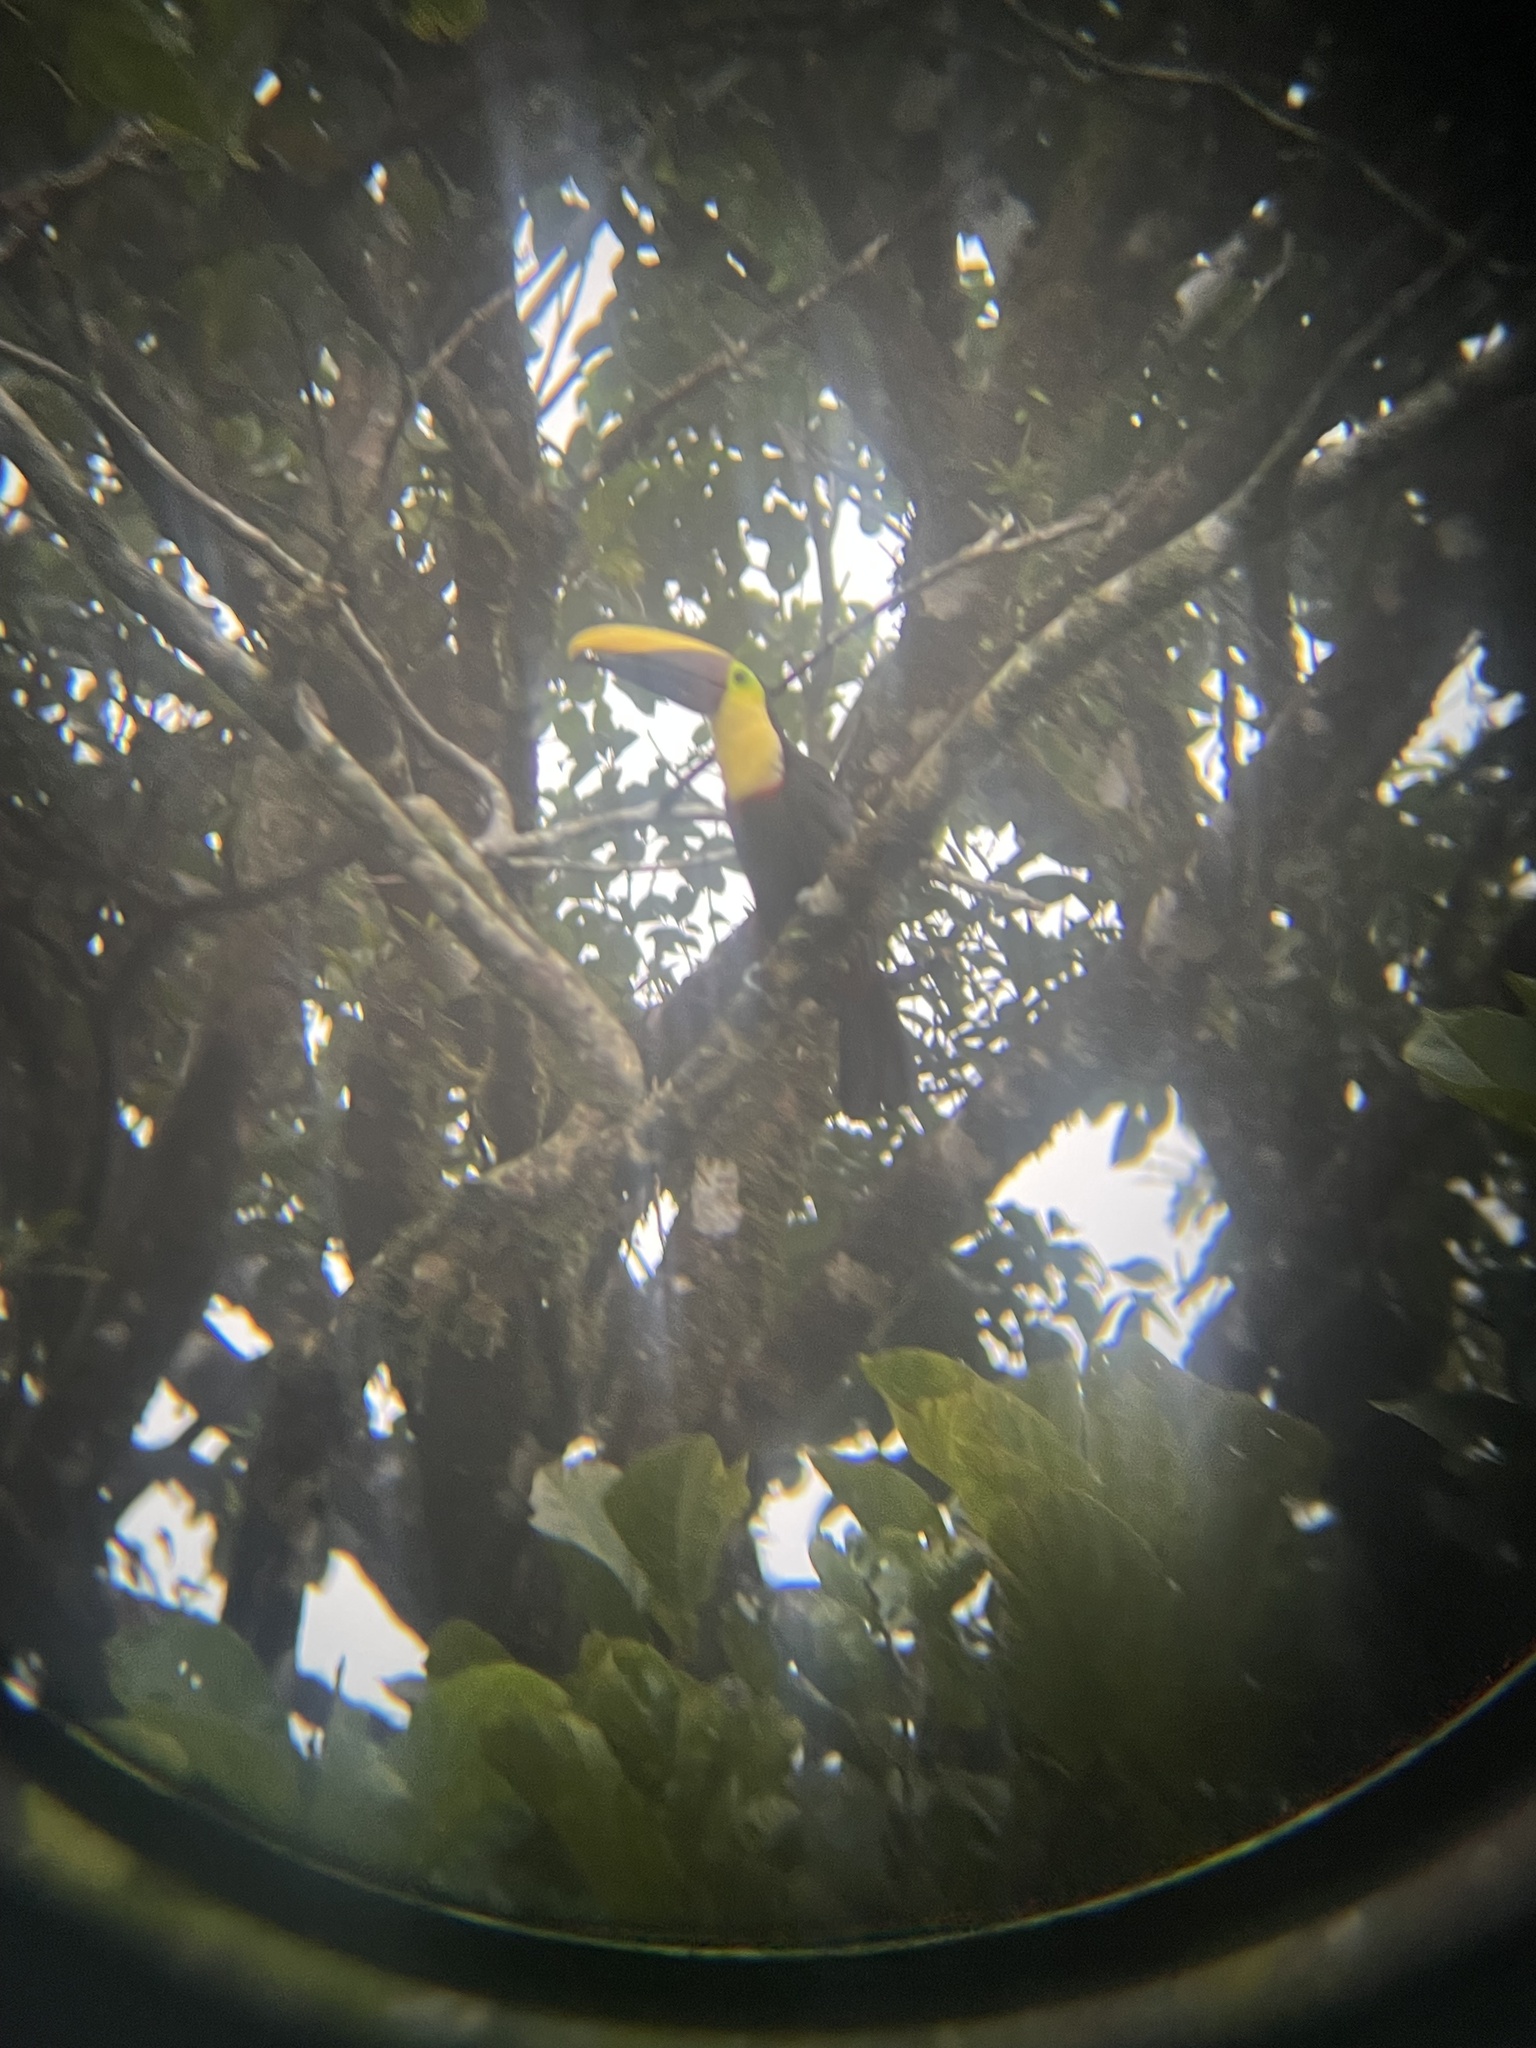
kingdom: Animalia
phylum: Chordata
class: Aves
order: Piciformes
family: Ramphastidae
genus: Ramphastos
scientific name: Ramphastos ambiguus
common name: Yellow-throated toucan
